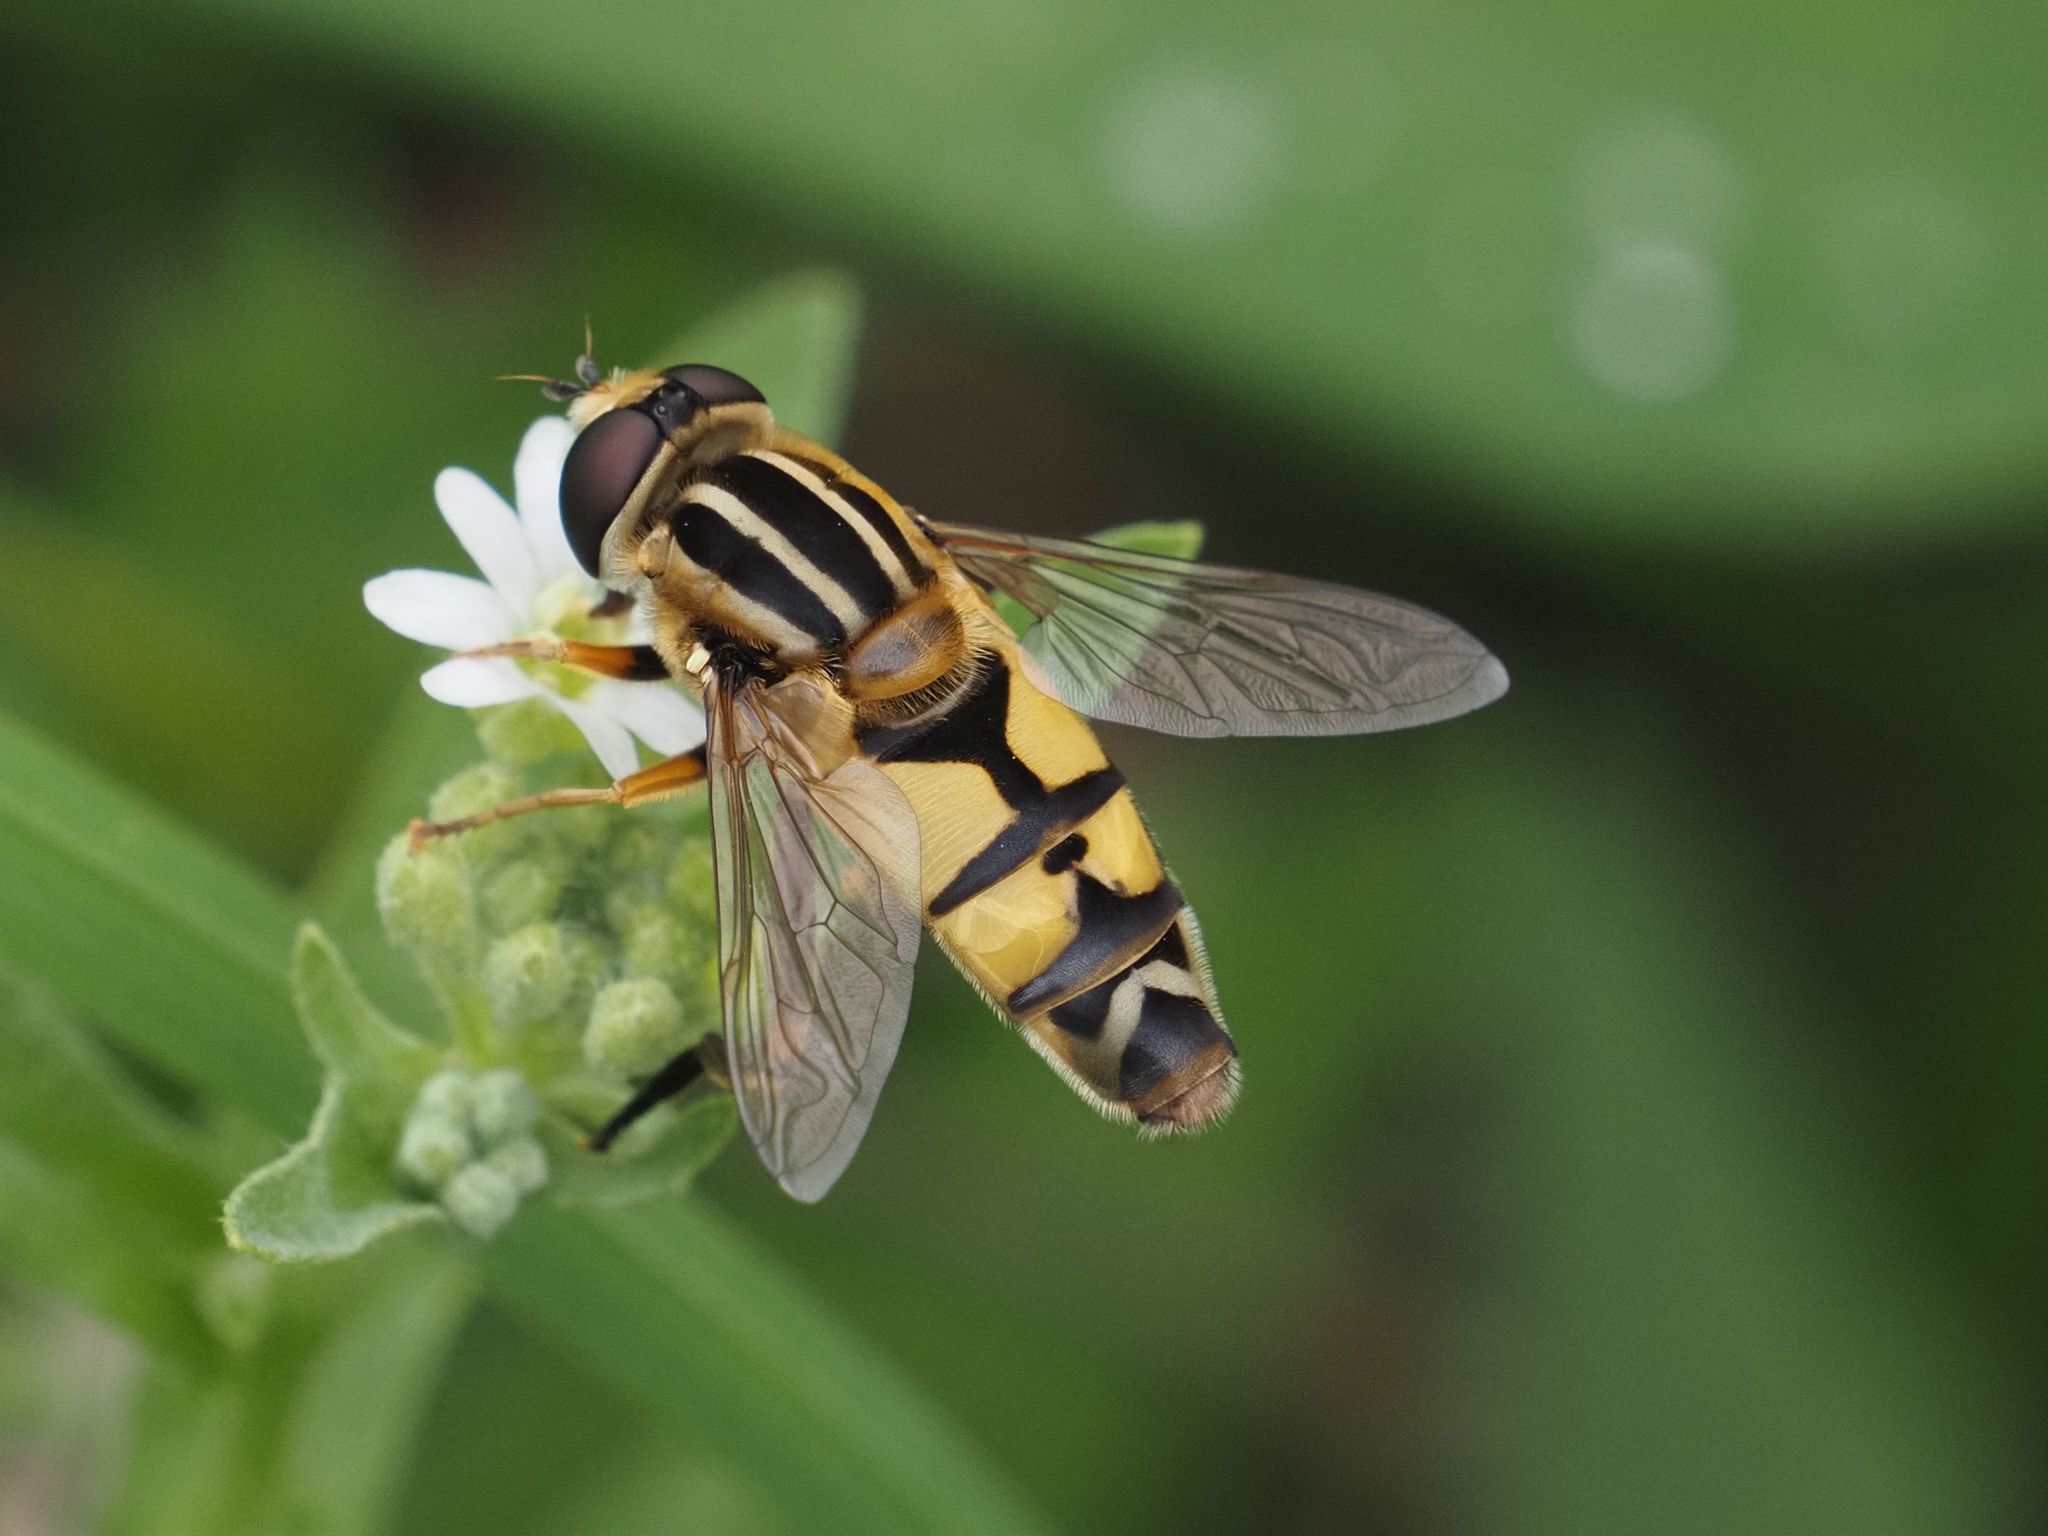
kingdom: Animalia
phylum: Arthropoda
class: Insecta
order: Diptera
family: Syrphidae
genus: Helophilus
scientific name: Helophilus trivittatus
